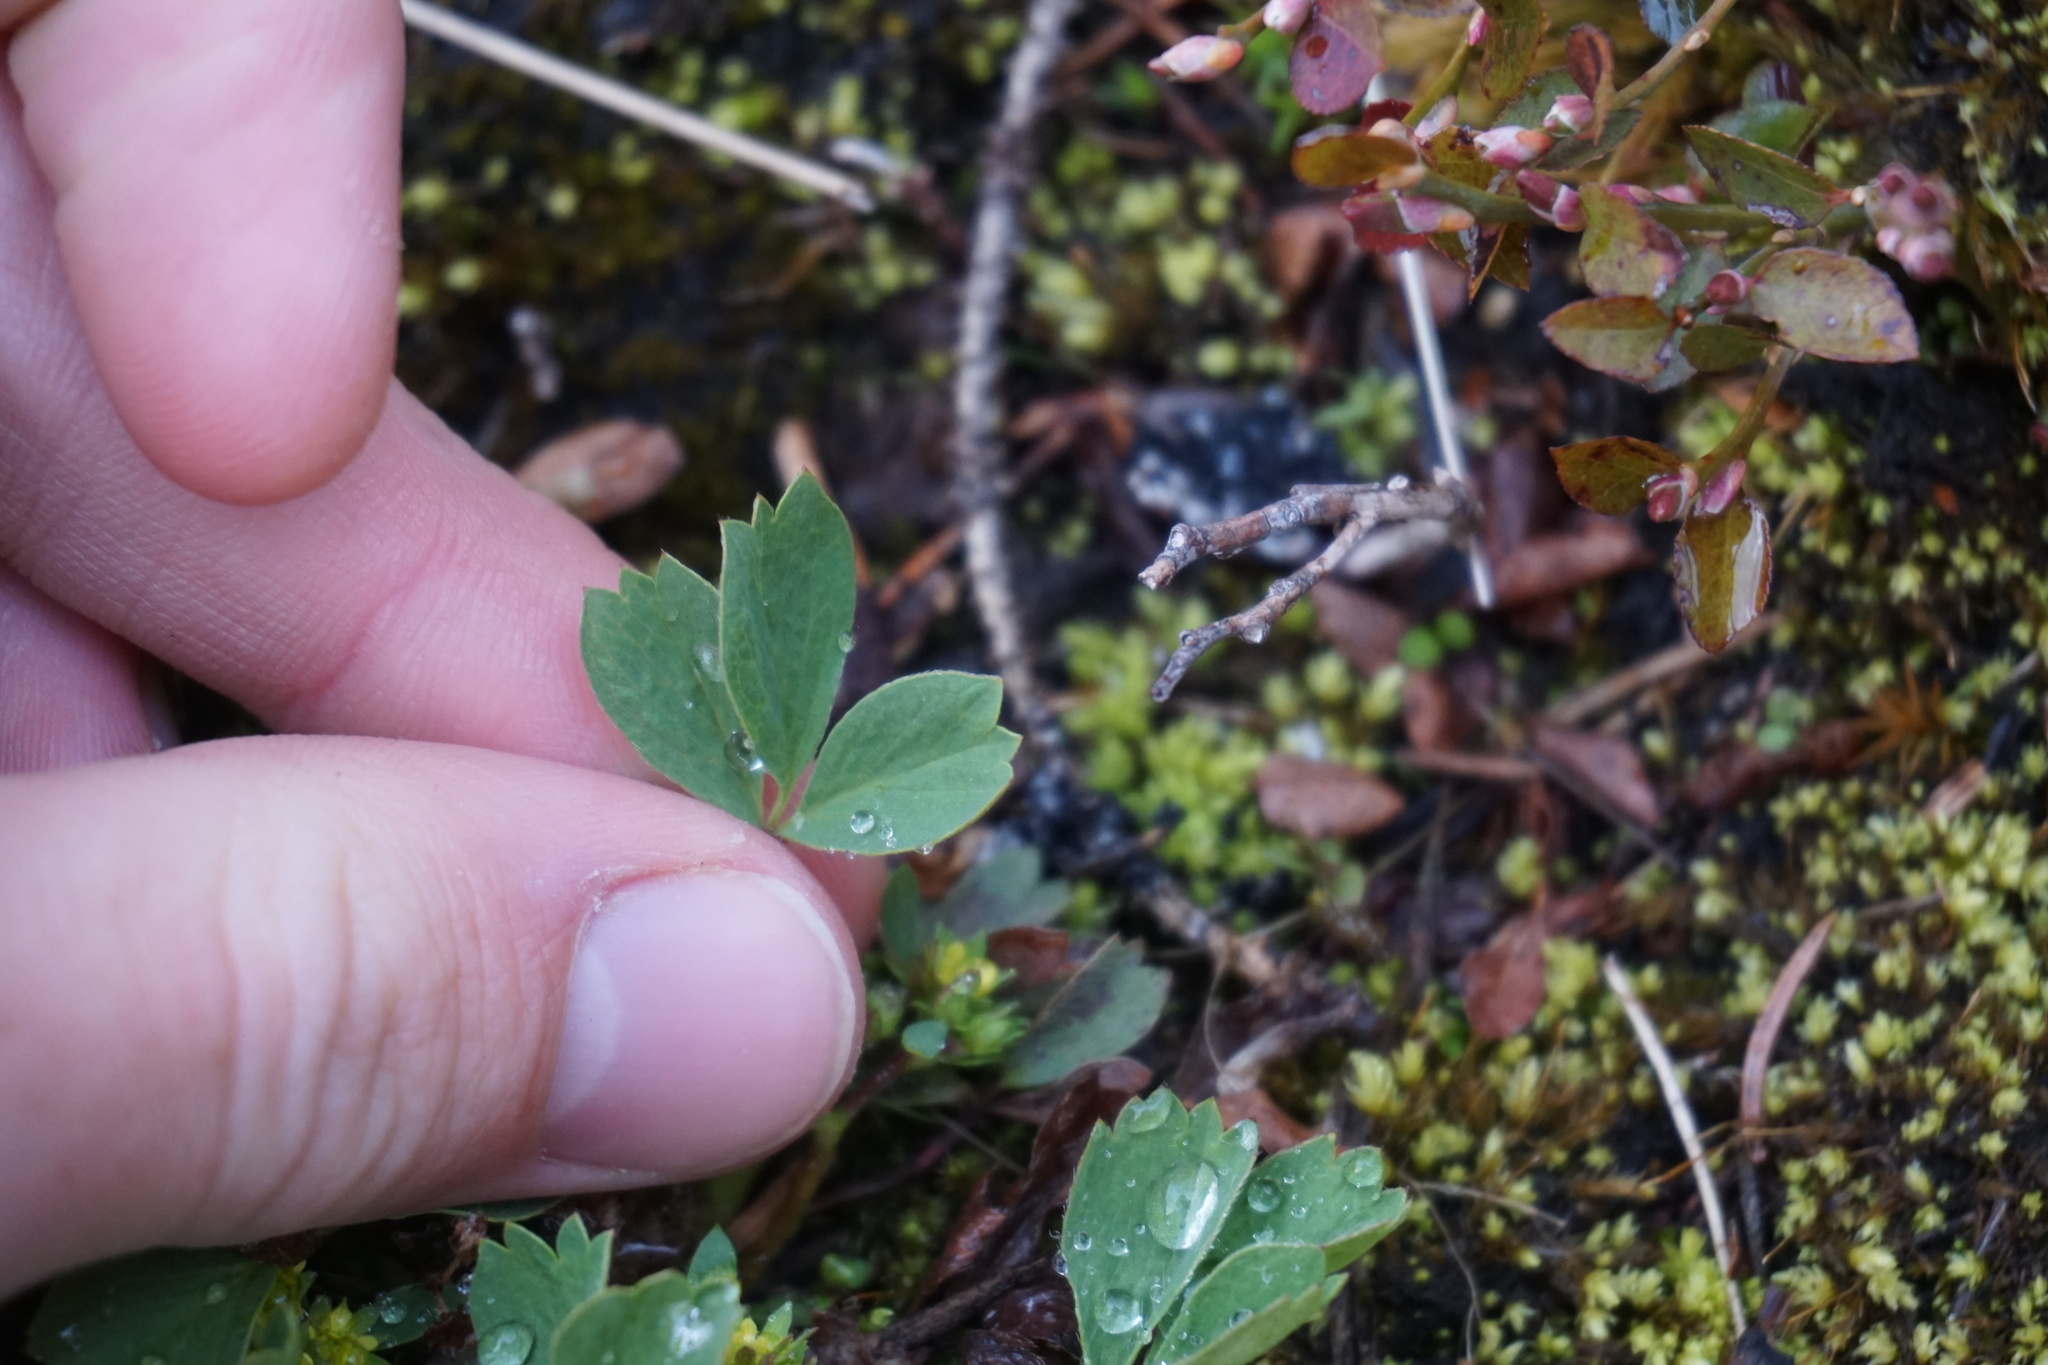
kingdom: Plantae
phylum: Tracheophyta
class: Magnoliopsida
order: Rosales
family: Rosaceae
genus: Sibbaldia
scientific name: Sibbaldia procumbens
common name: Creeping sibbaldia
